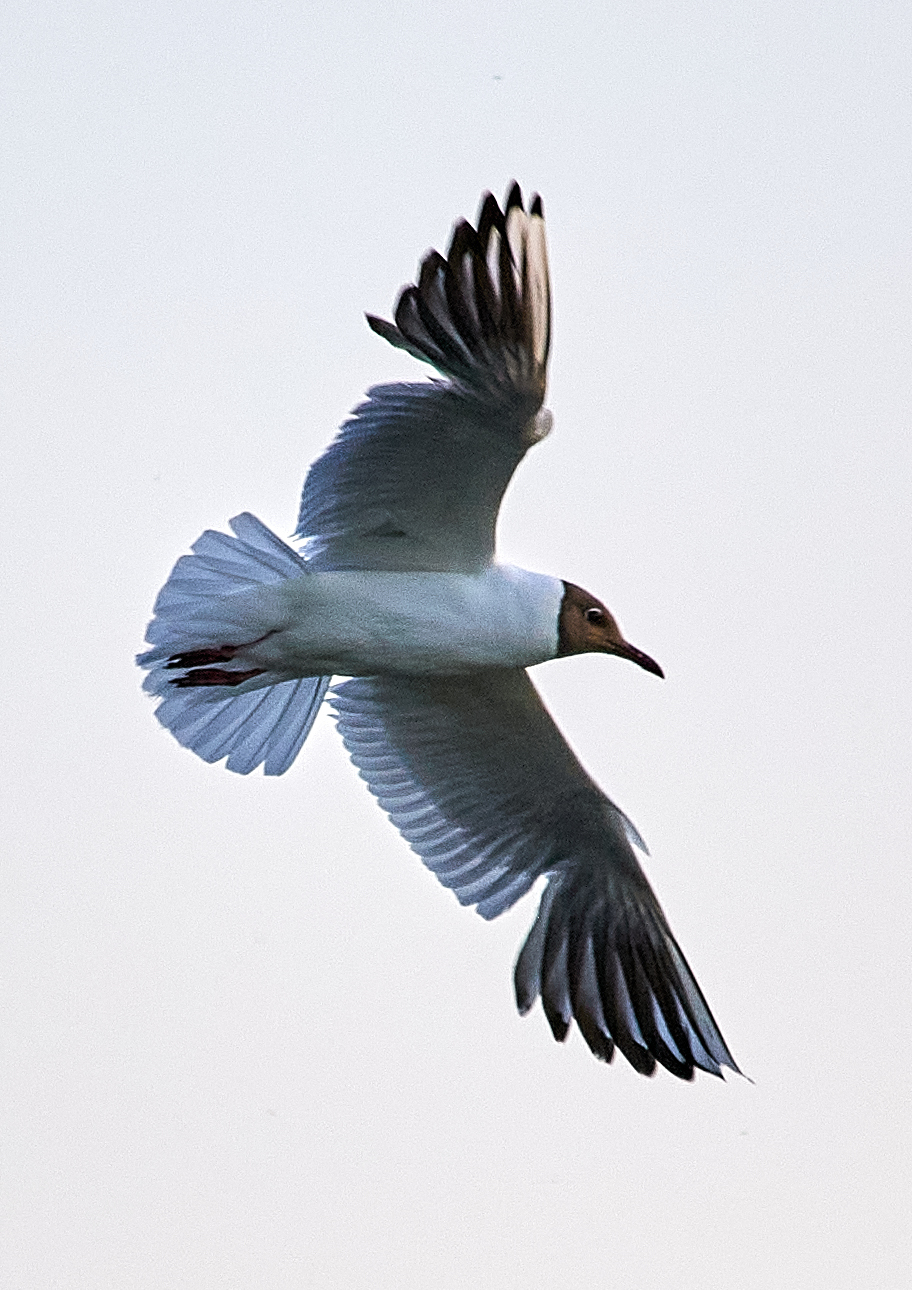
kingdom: Animalia
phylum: Chordata
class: Aves
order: Charadriiformes
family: Laridae
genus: Chroicocephalus
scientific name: Chroicocephalus ridibundus
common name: Black-headed gull
